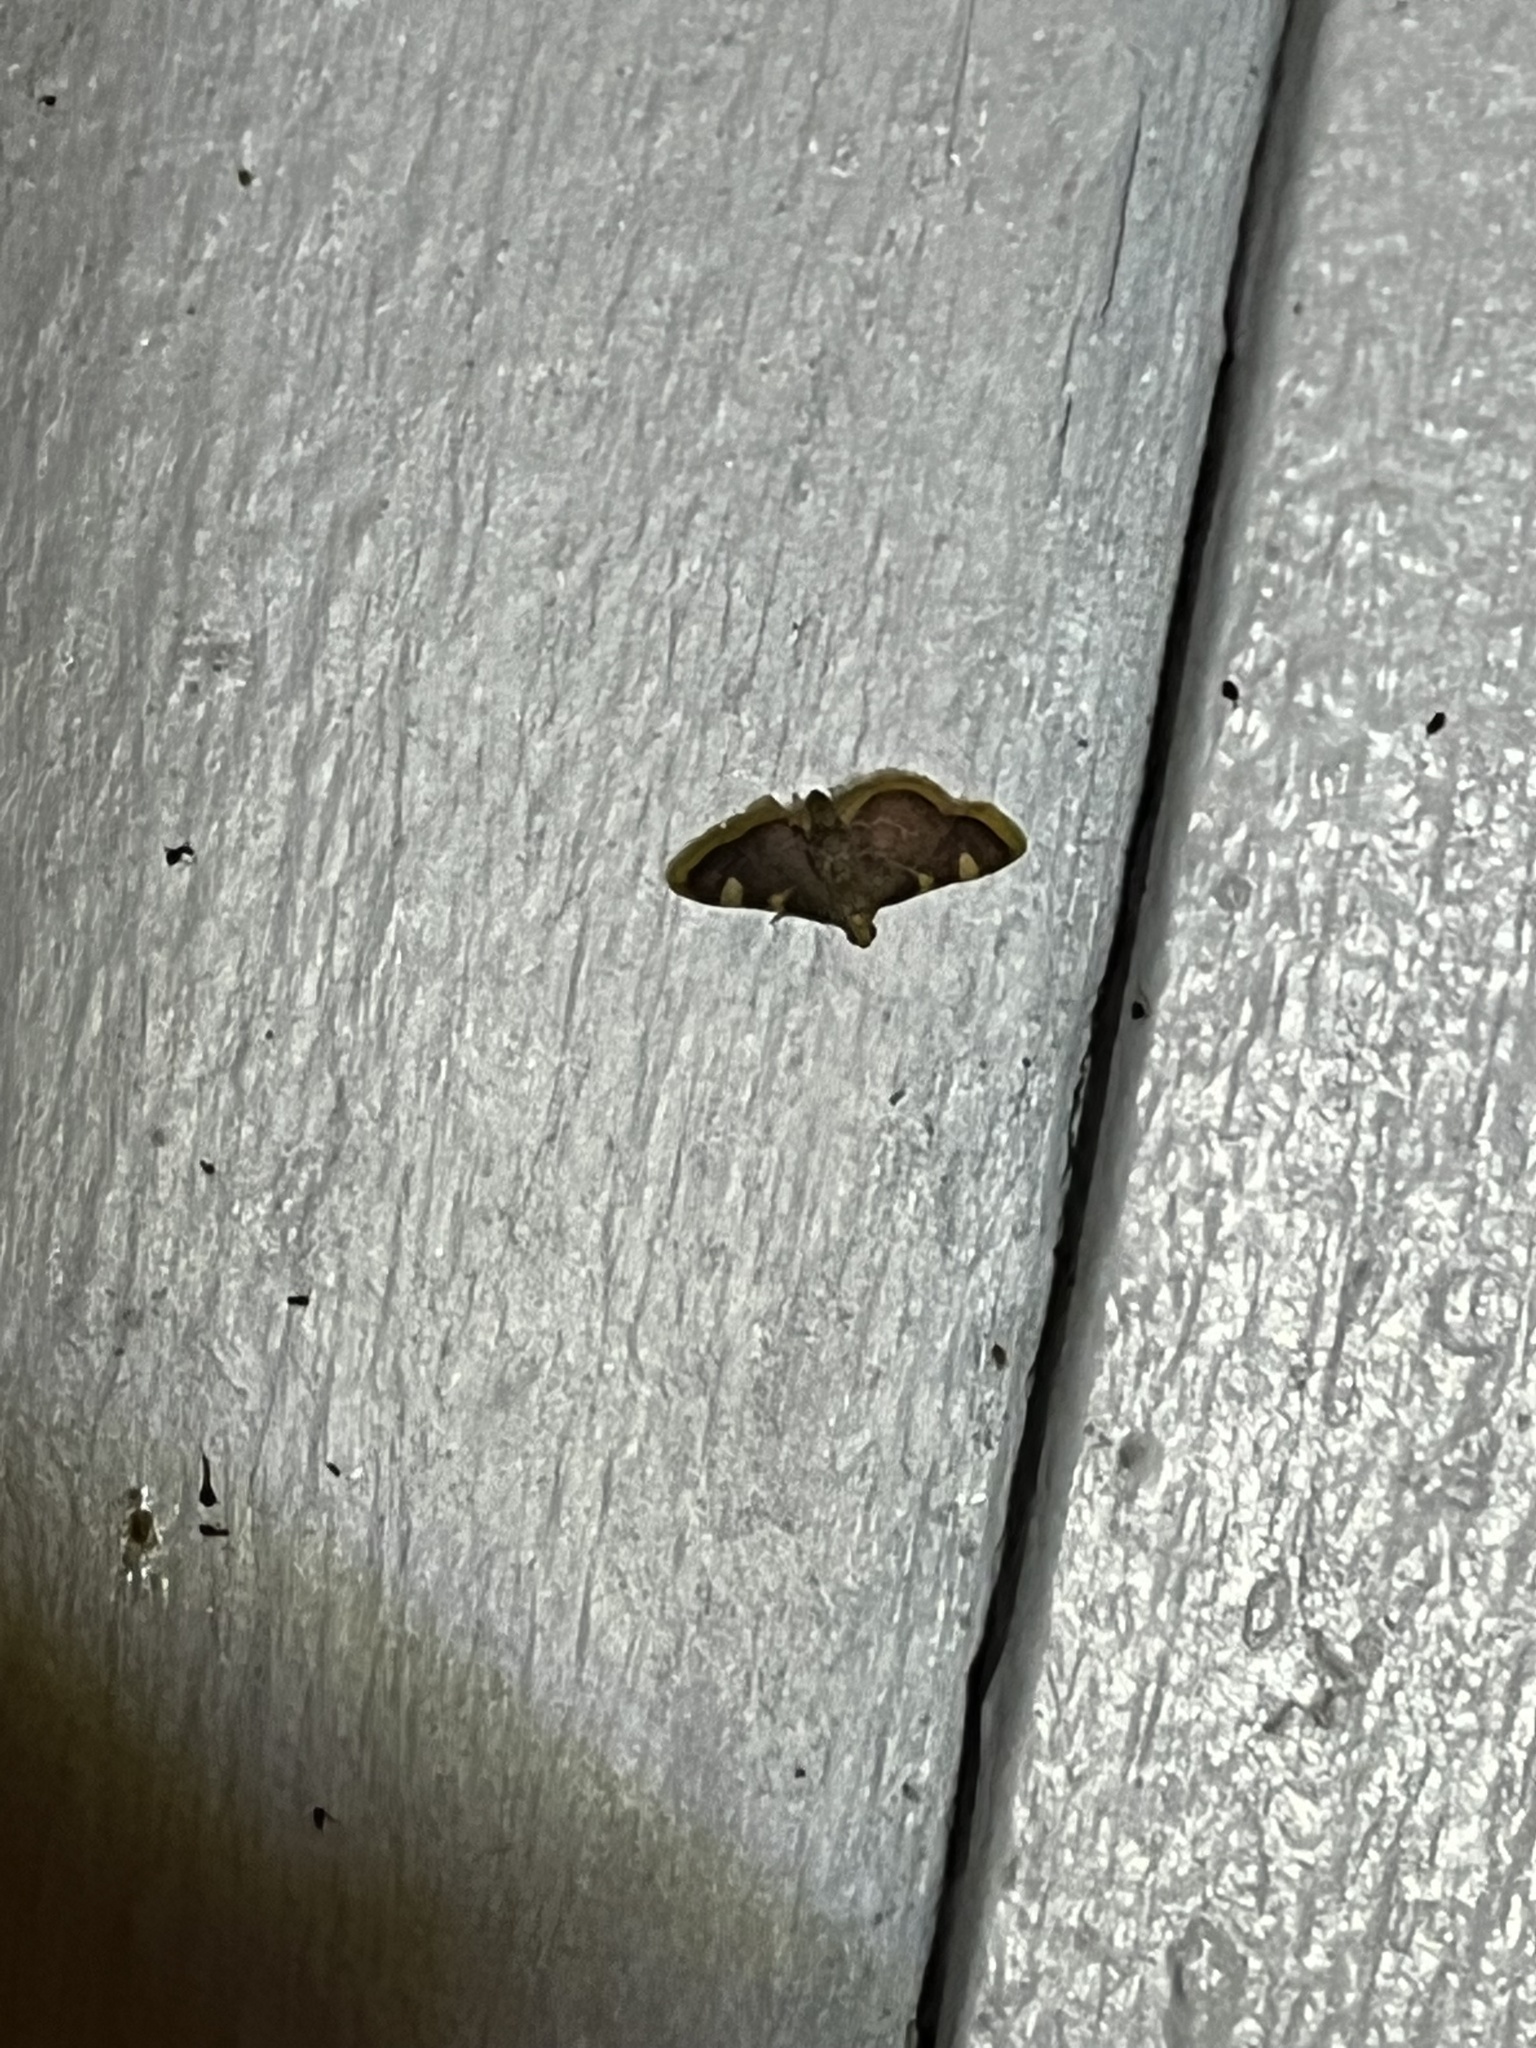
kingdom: Animalia
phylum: Arthropoda
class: Insecta
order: Lepidoptera
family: Pyralidae
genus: Hypsopygia
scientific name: Hypsopygia costalis
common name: Gold triangle
